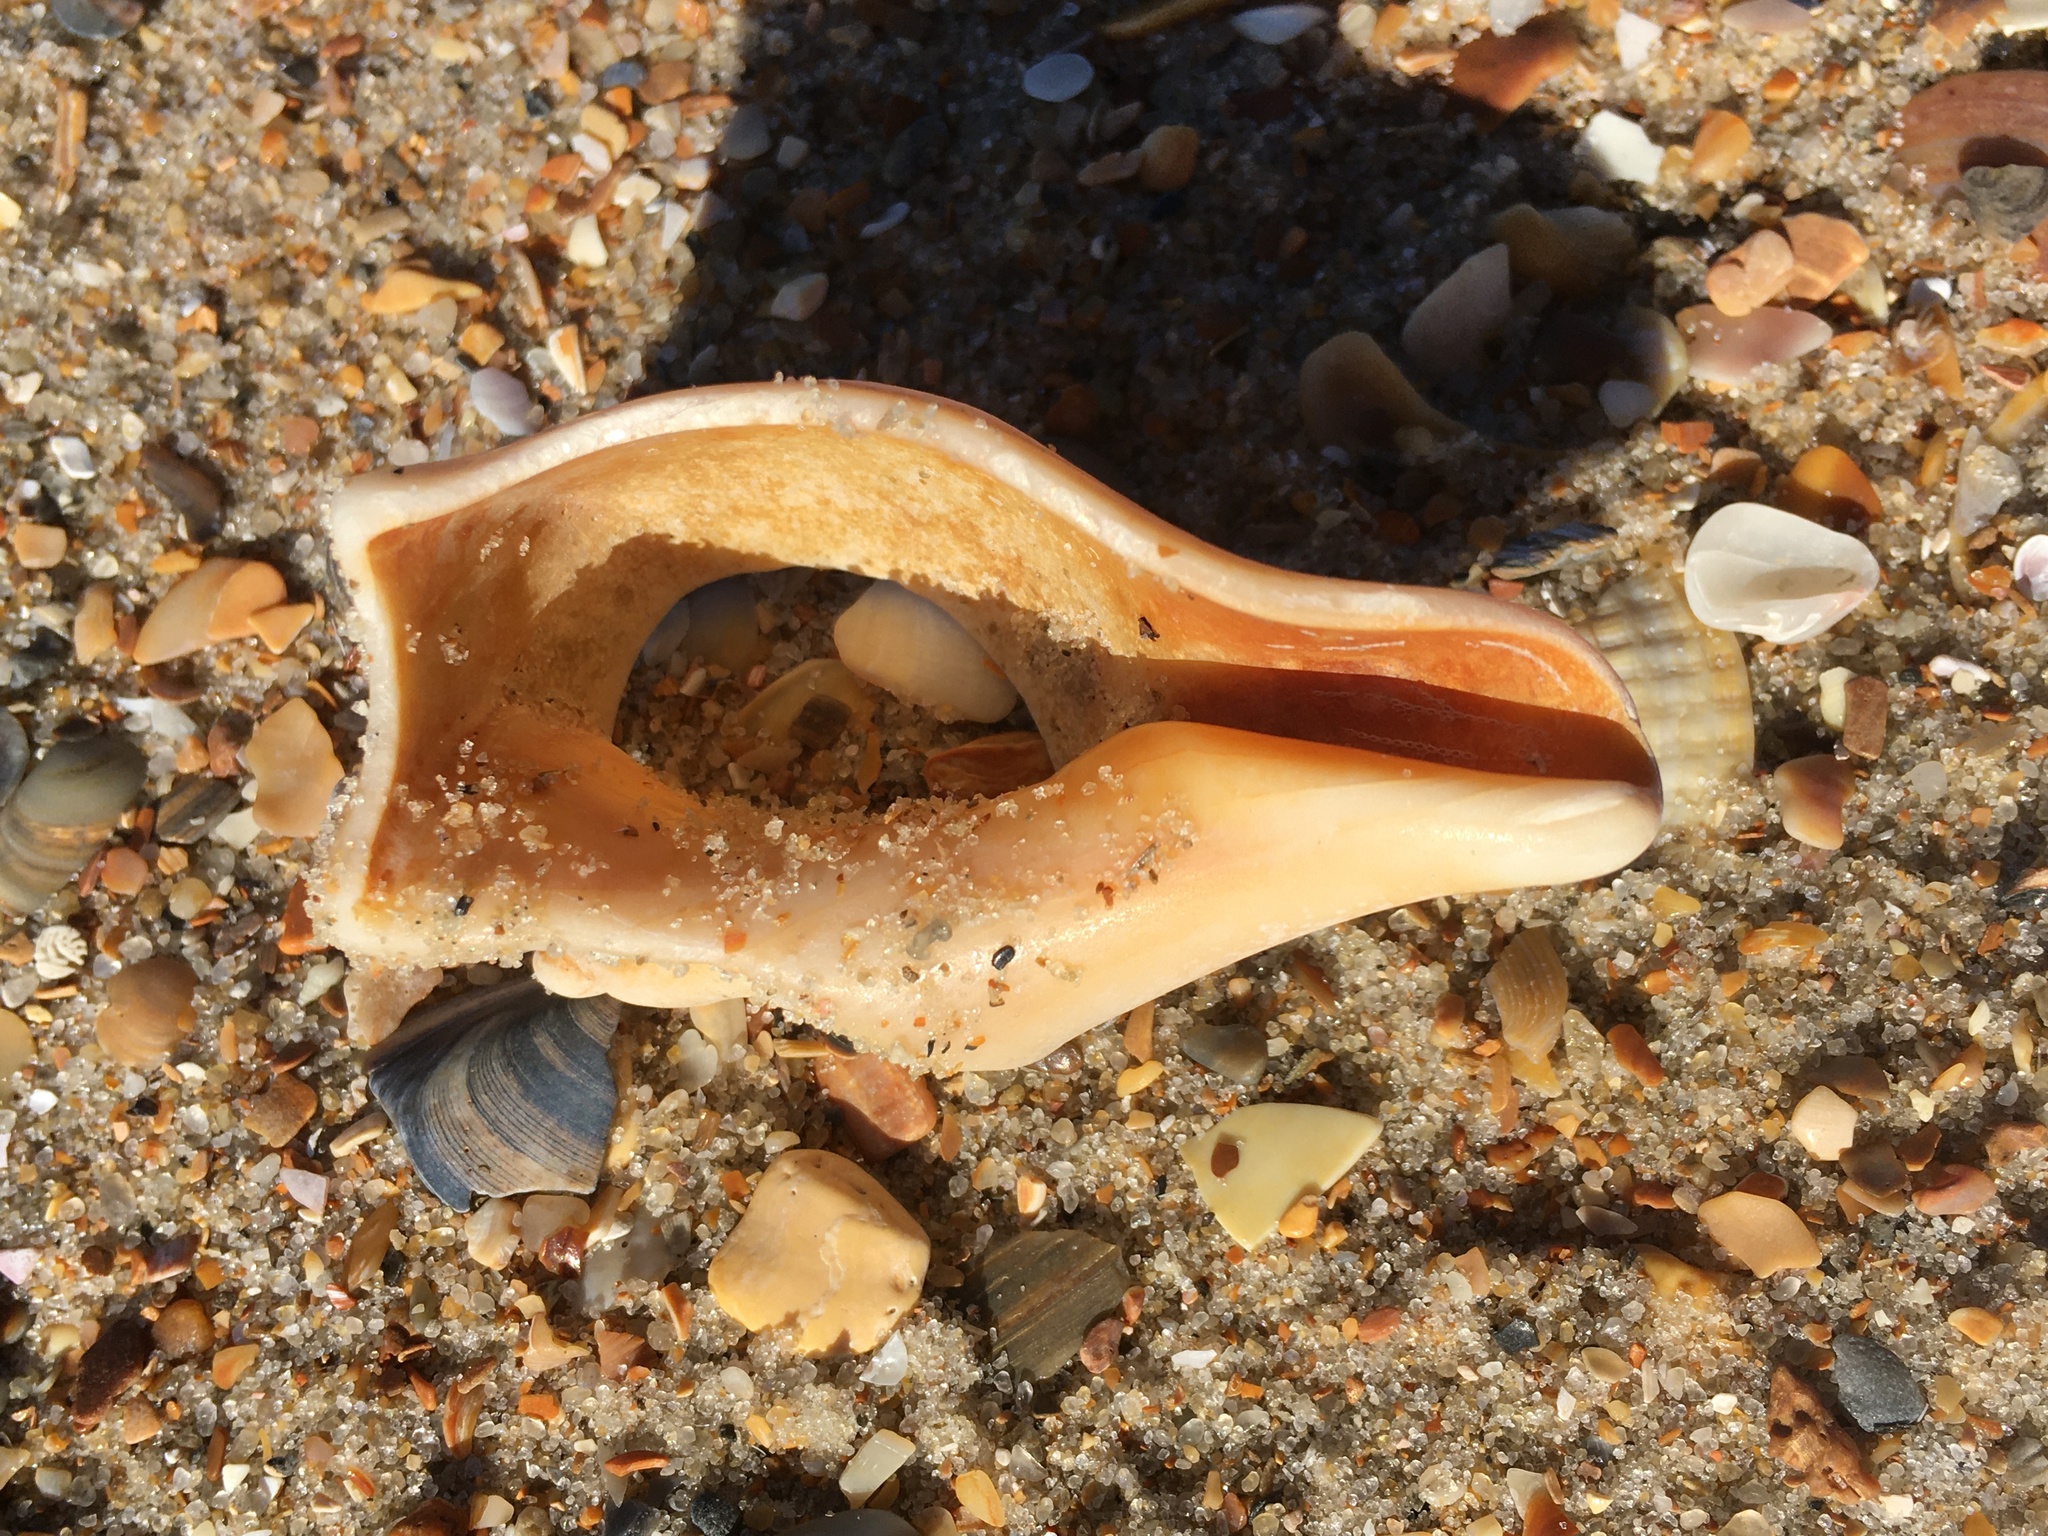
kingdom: Animalia
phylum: Mollusca
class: Gastropoda
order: Neogastropoda
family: Busyconidae
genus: Busycon
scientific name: Busycon carica
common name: Knobbed whelk
